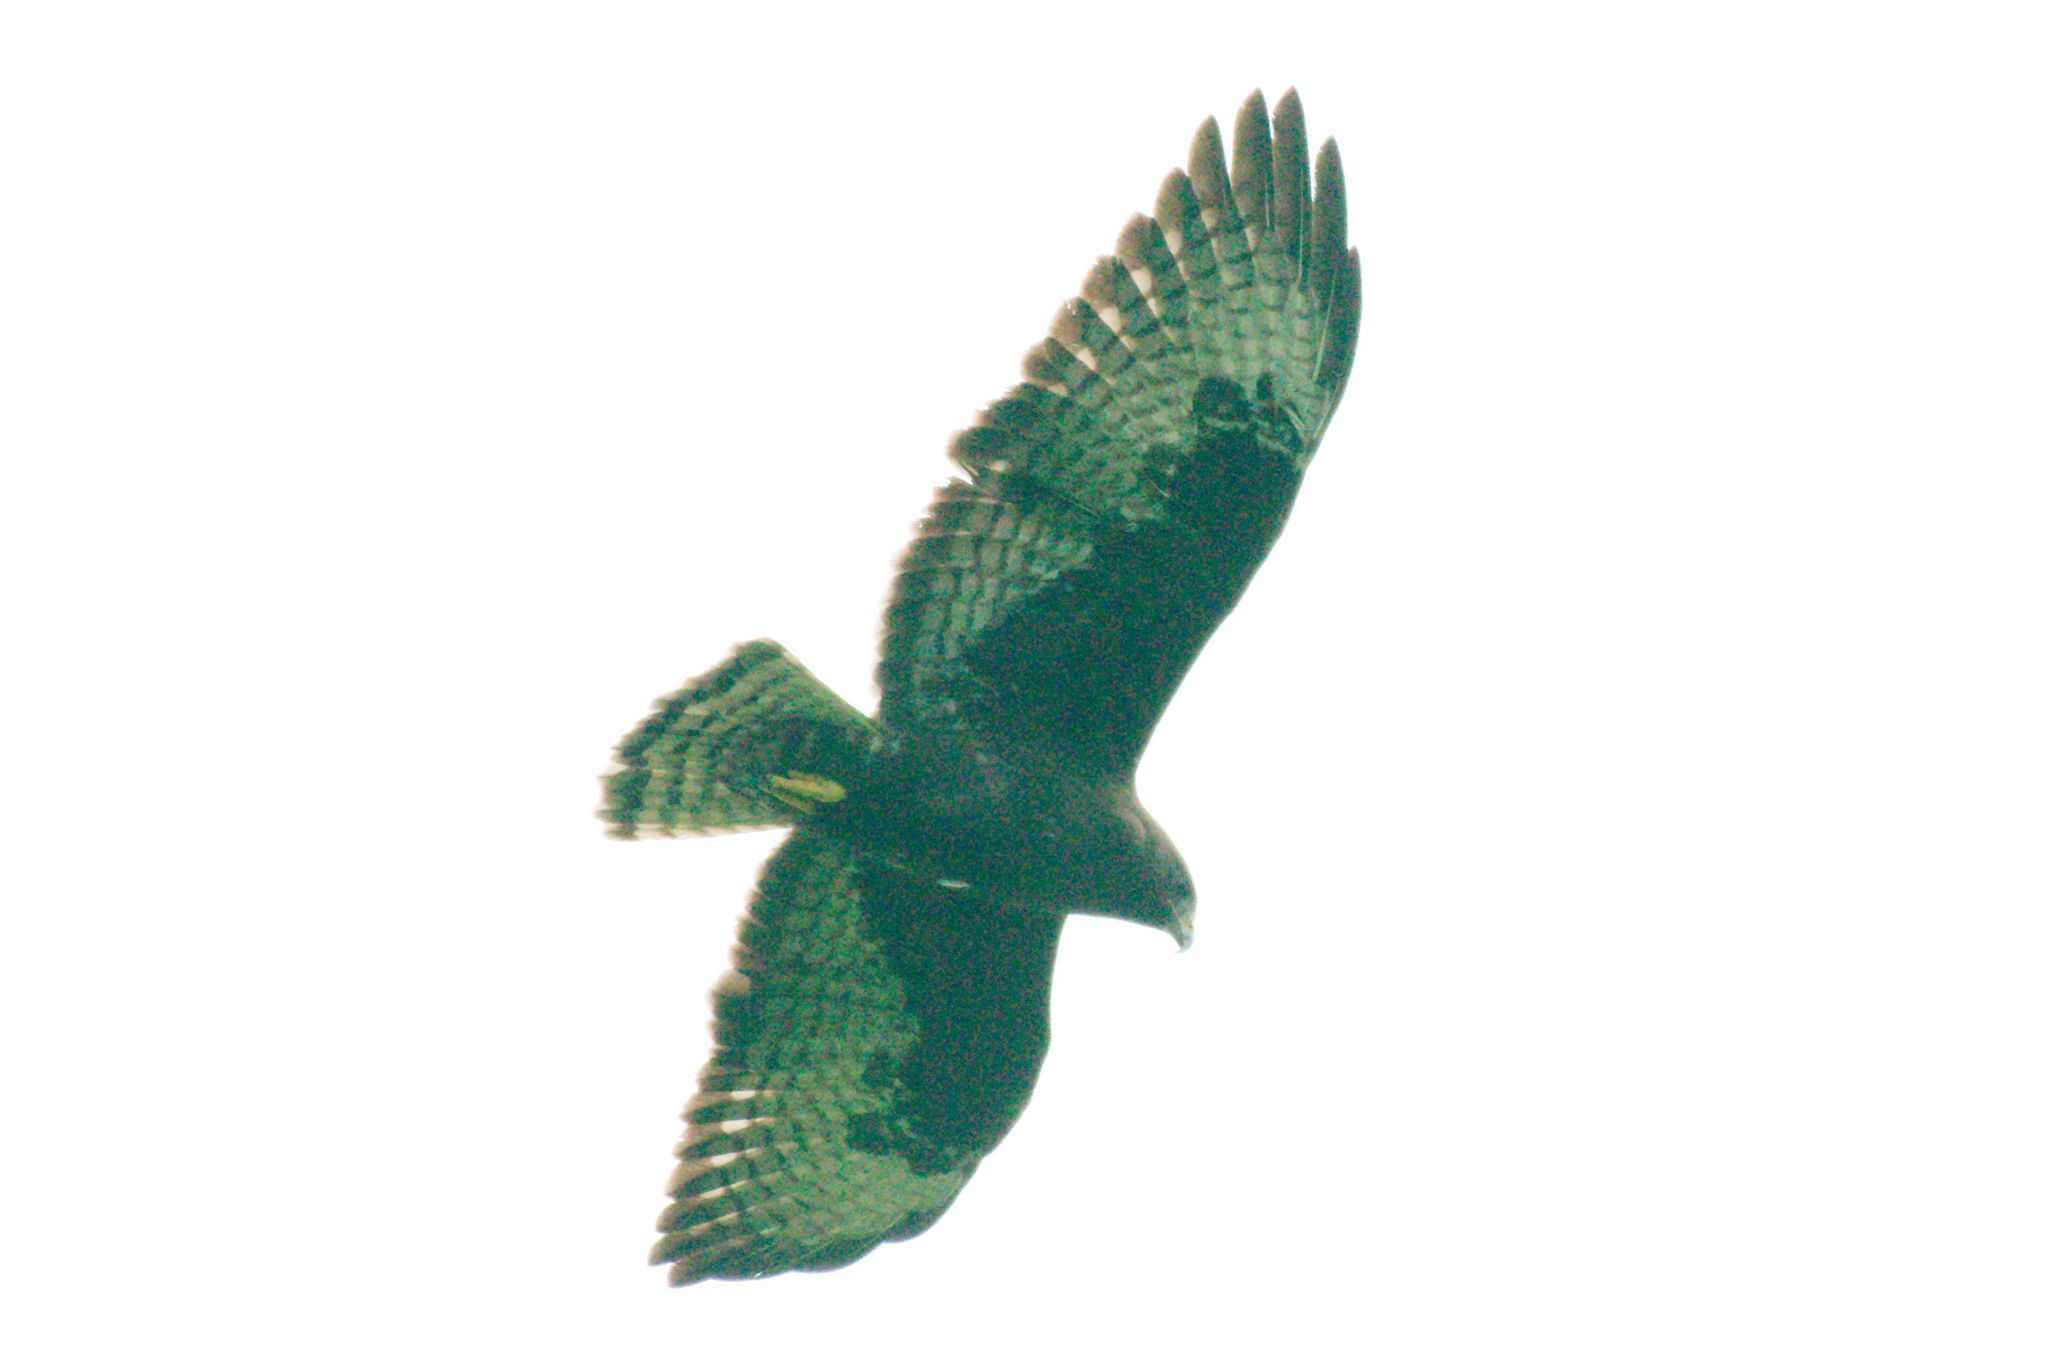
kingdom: Animalia
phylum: Chordata
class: Aves
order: Accipitriformes
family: Accipitridae
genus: Buteo
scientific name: Buteo brachyurus
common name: Short-tailed hawk
